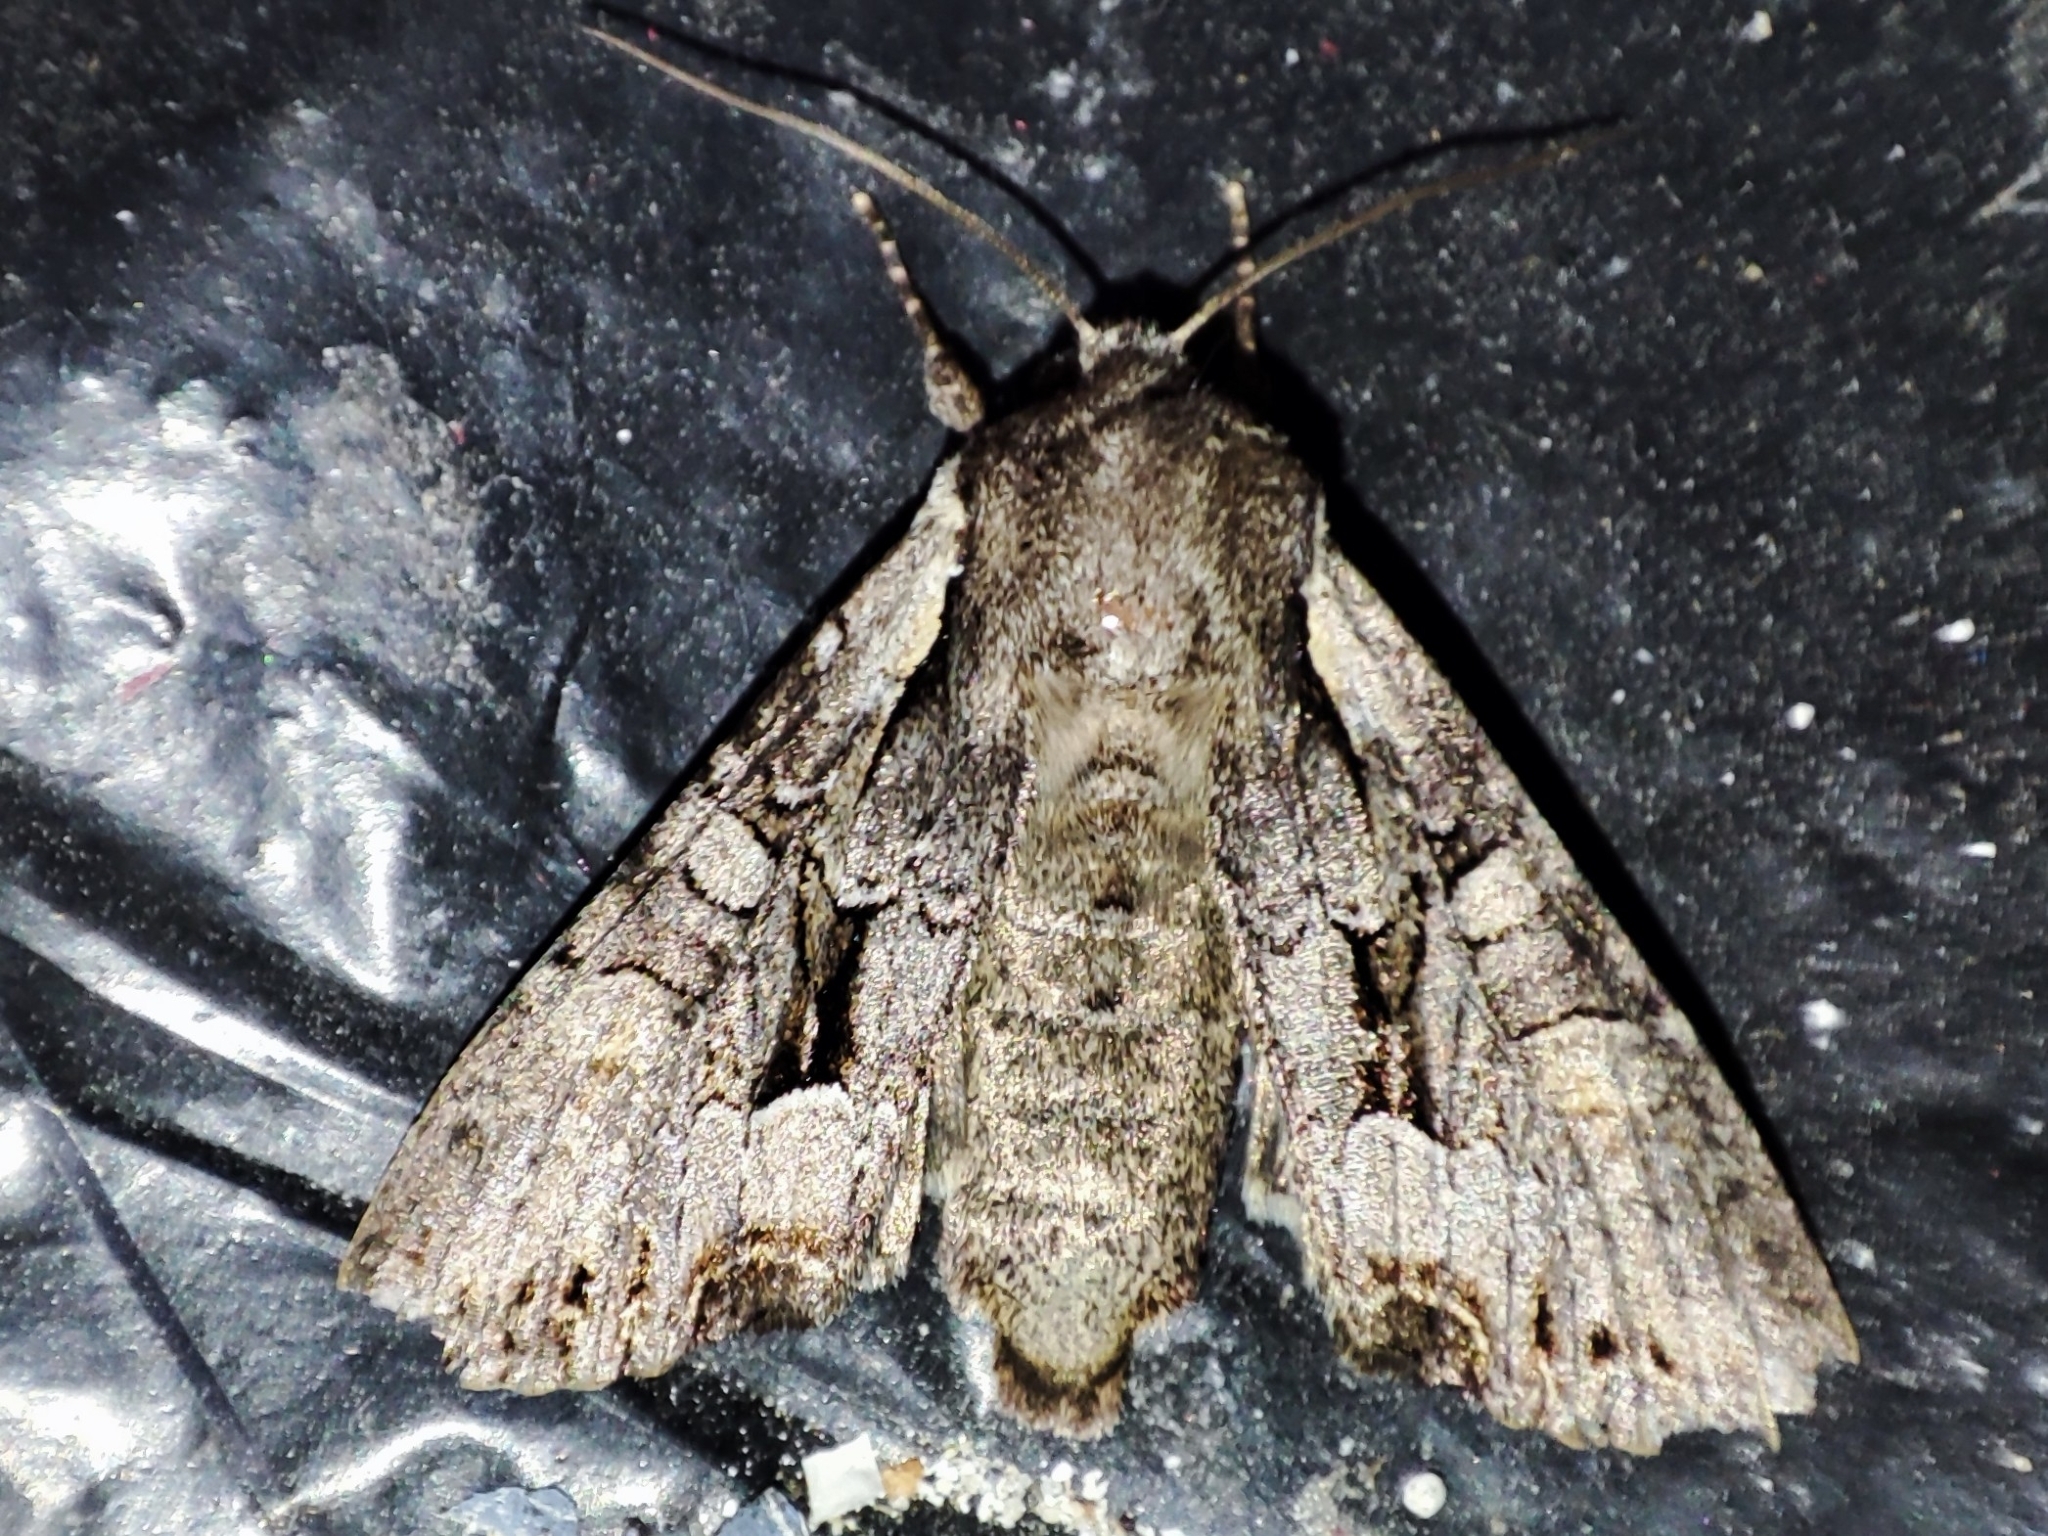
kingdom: Animalia
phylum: Arthropoda
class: Insecta
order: Lepidoptera
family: Noctuidae
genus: Lacanobia
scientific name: Lacanobia w-latinum
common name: Light brocade
